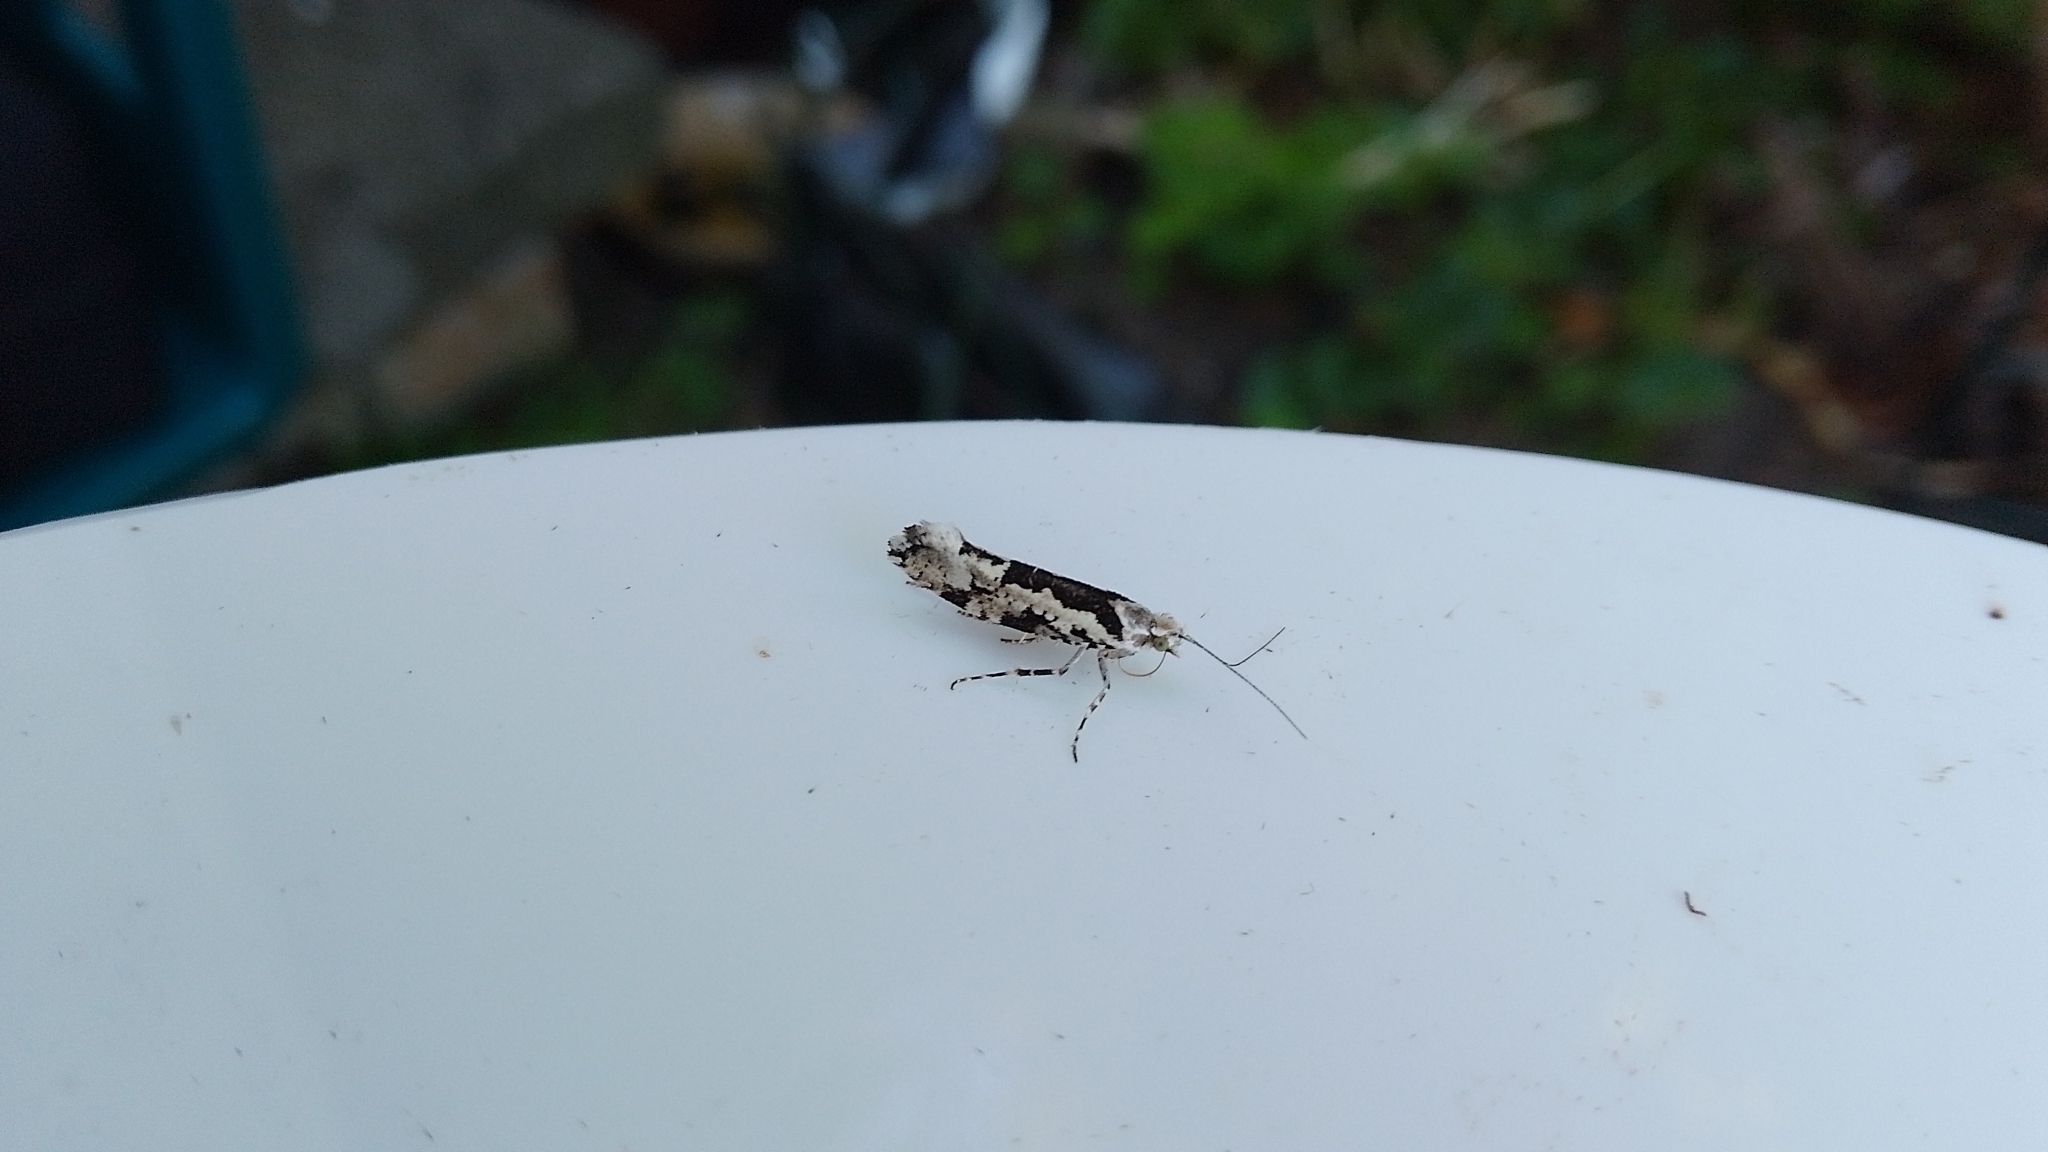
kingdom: Animalia
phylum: Arthropoda
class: Insecta
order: Lepidoptera
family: Plutellidae
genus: Ypsolophus
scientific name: Ypsolophus sequella
